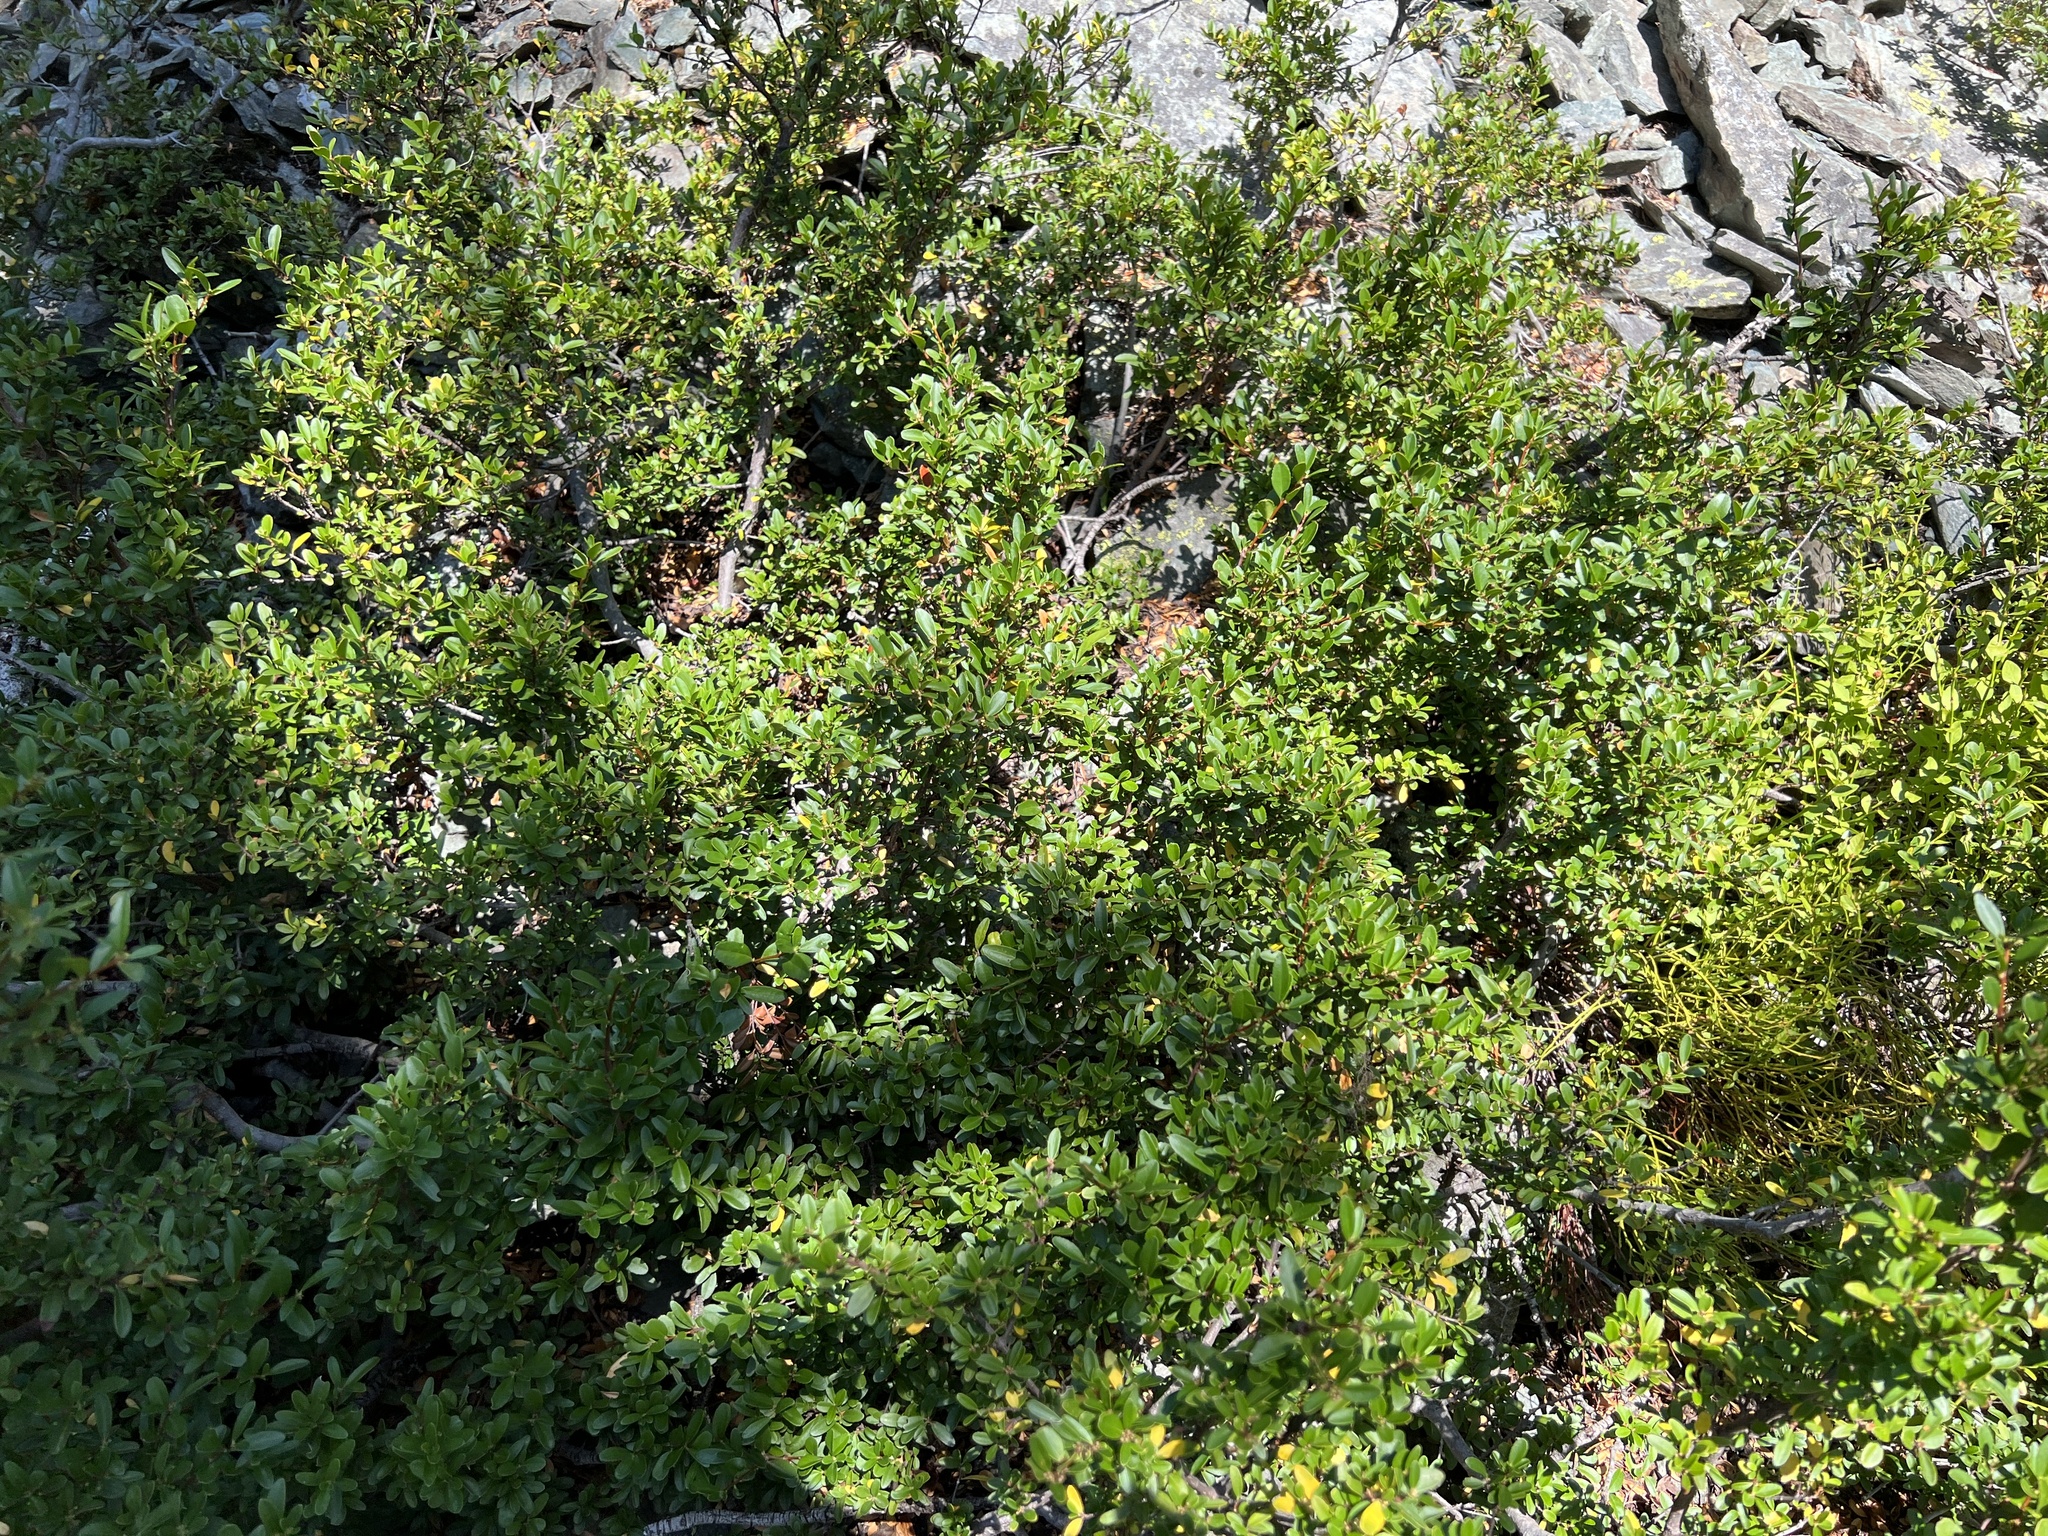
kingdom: Plantae
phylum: Tracheophyta
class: Magnoliopsida
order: Celastrales
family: Celastraceae
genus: Paxistima
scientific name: Paxistima myrsinites
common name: Mountain-lover
